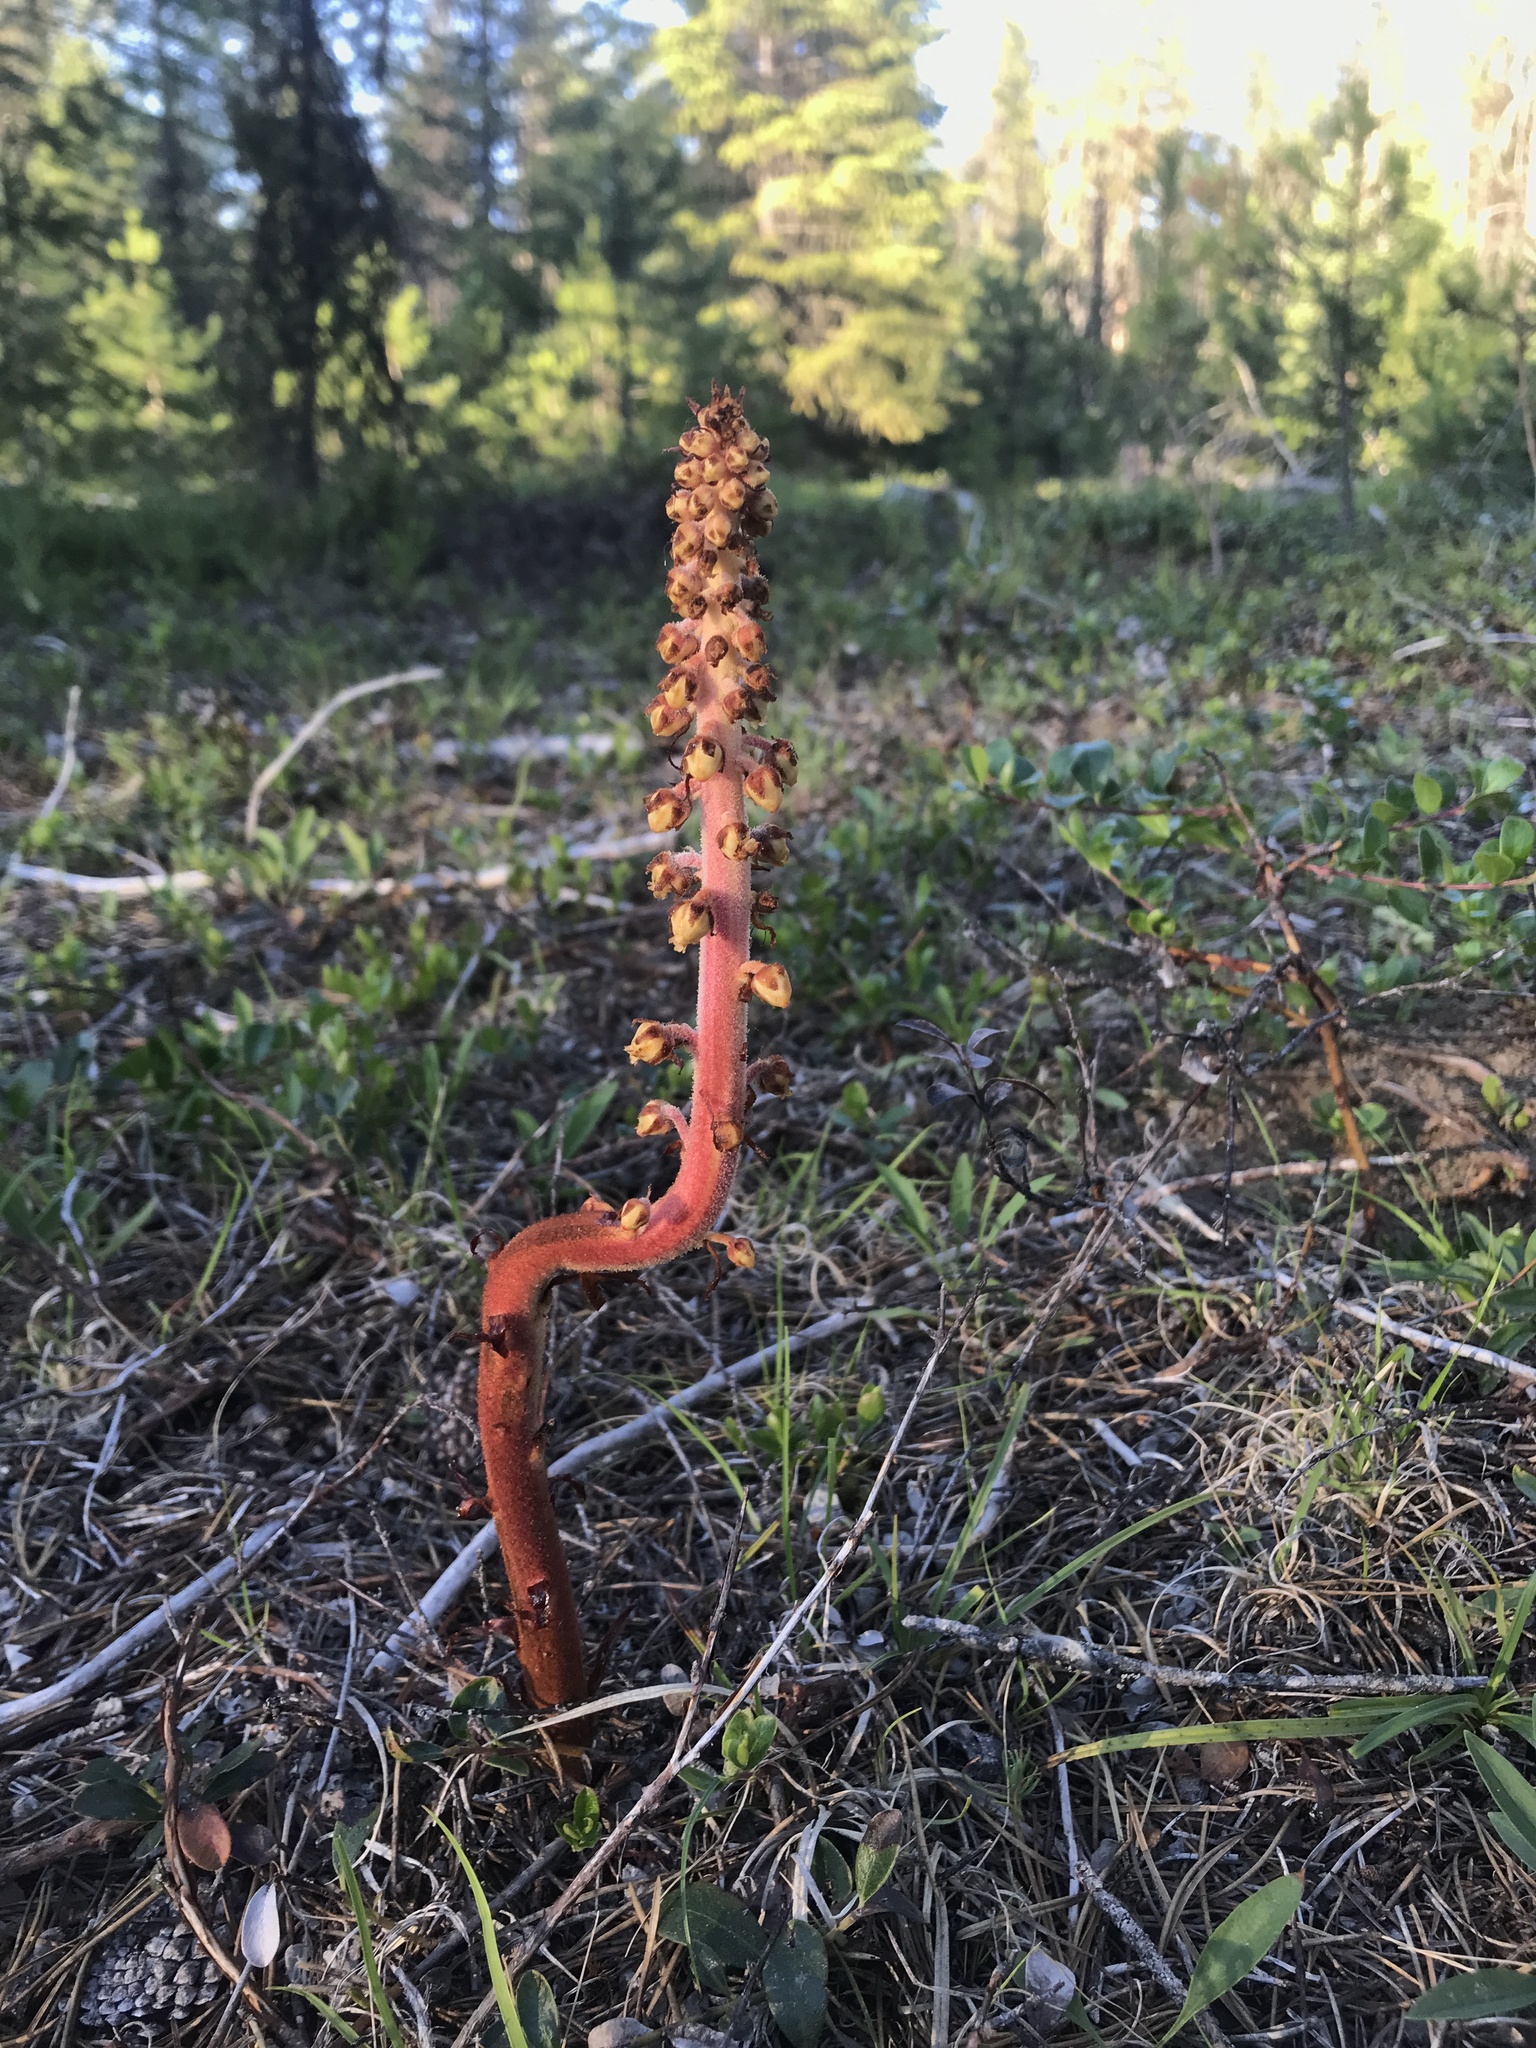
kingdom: Plantae
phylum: Tracheophyta
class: Magnoliopsida
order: Ericales
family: Ericaceae
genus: Pterospora
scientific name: Pterospora andromedea
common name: Giant bird's-nest
